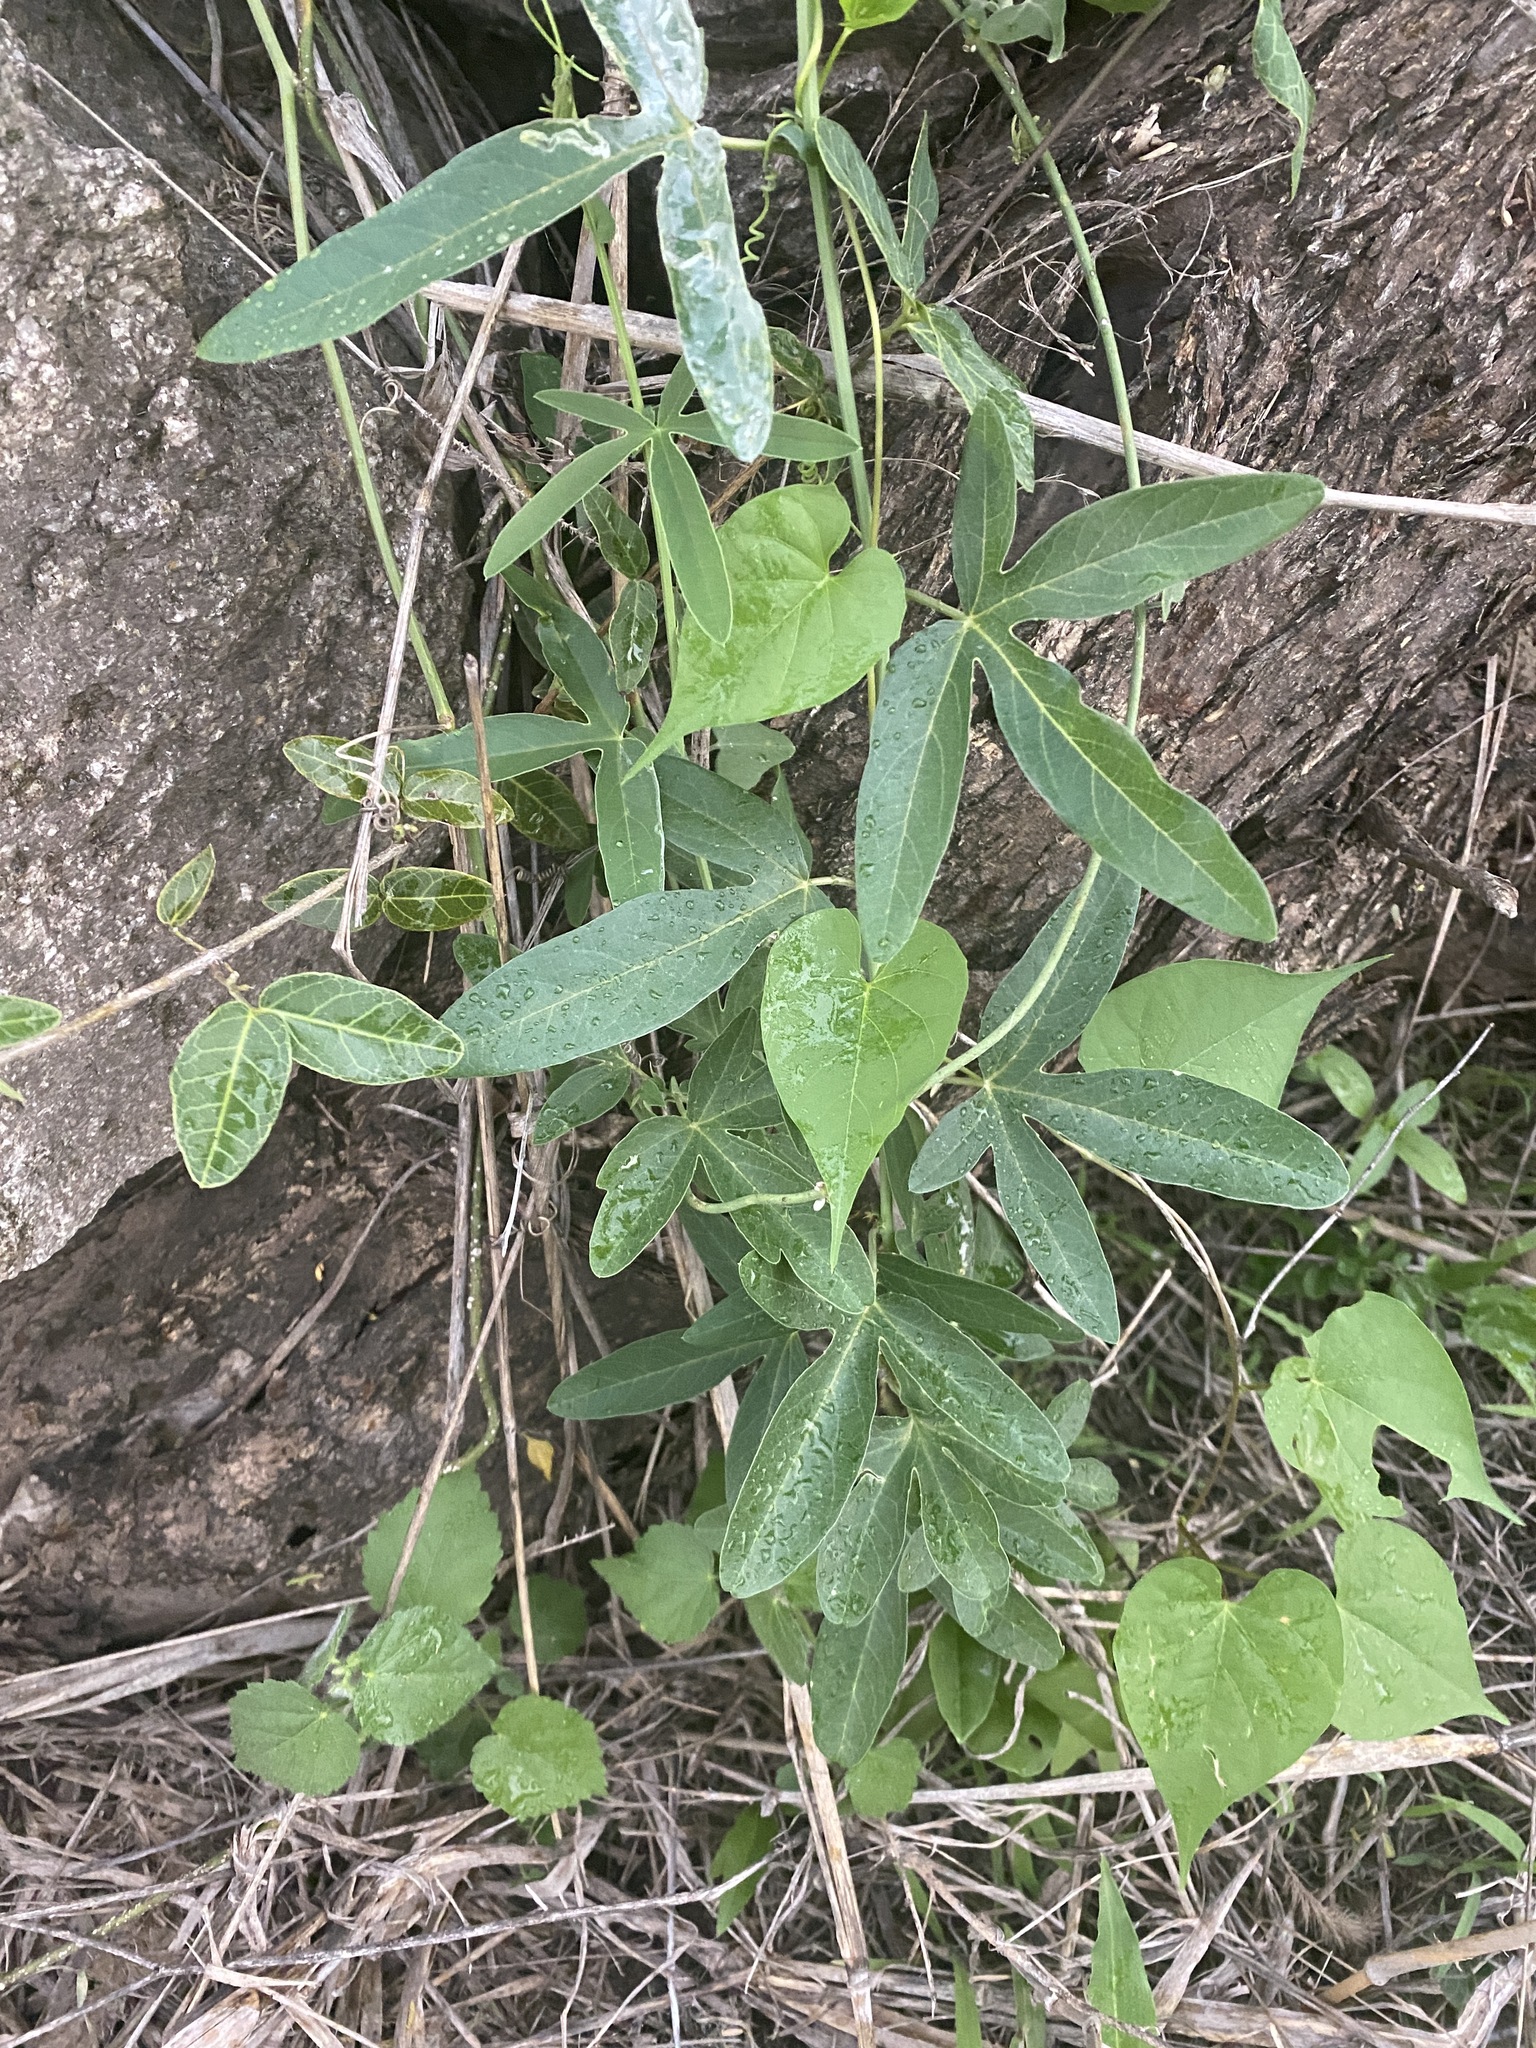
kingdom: Plantae
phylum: Tracheophyta
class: Magnoliopsida
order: Malpighiales
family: Passifloraceae
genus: Passiflora
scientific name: Passiflora caerulea
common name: Blue passionflower
